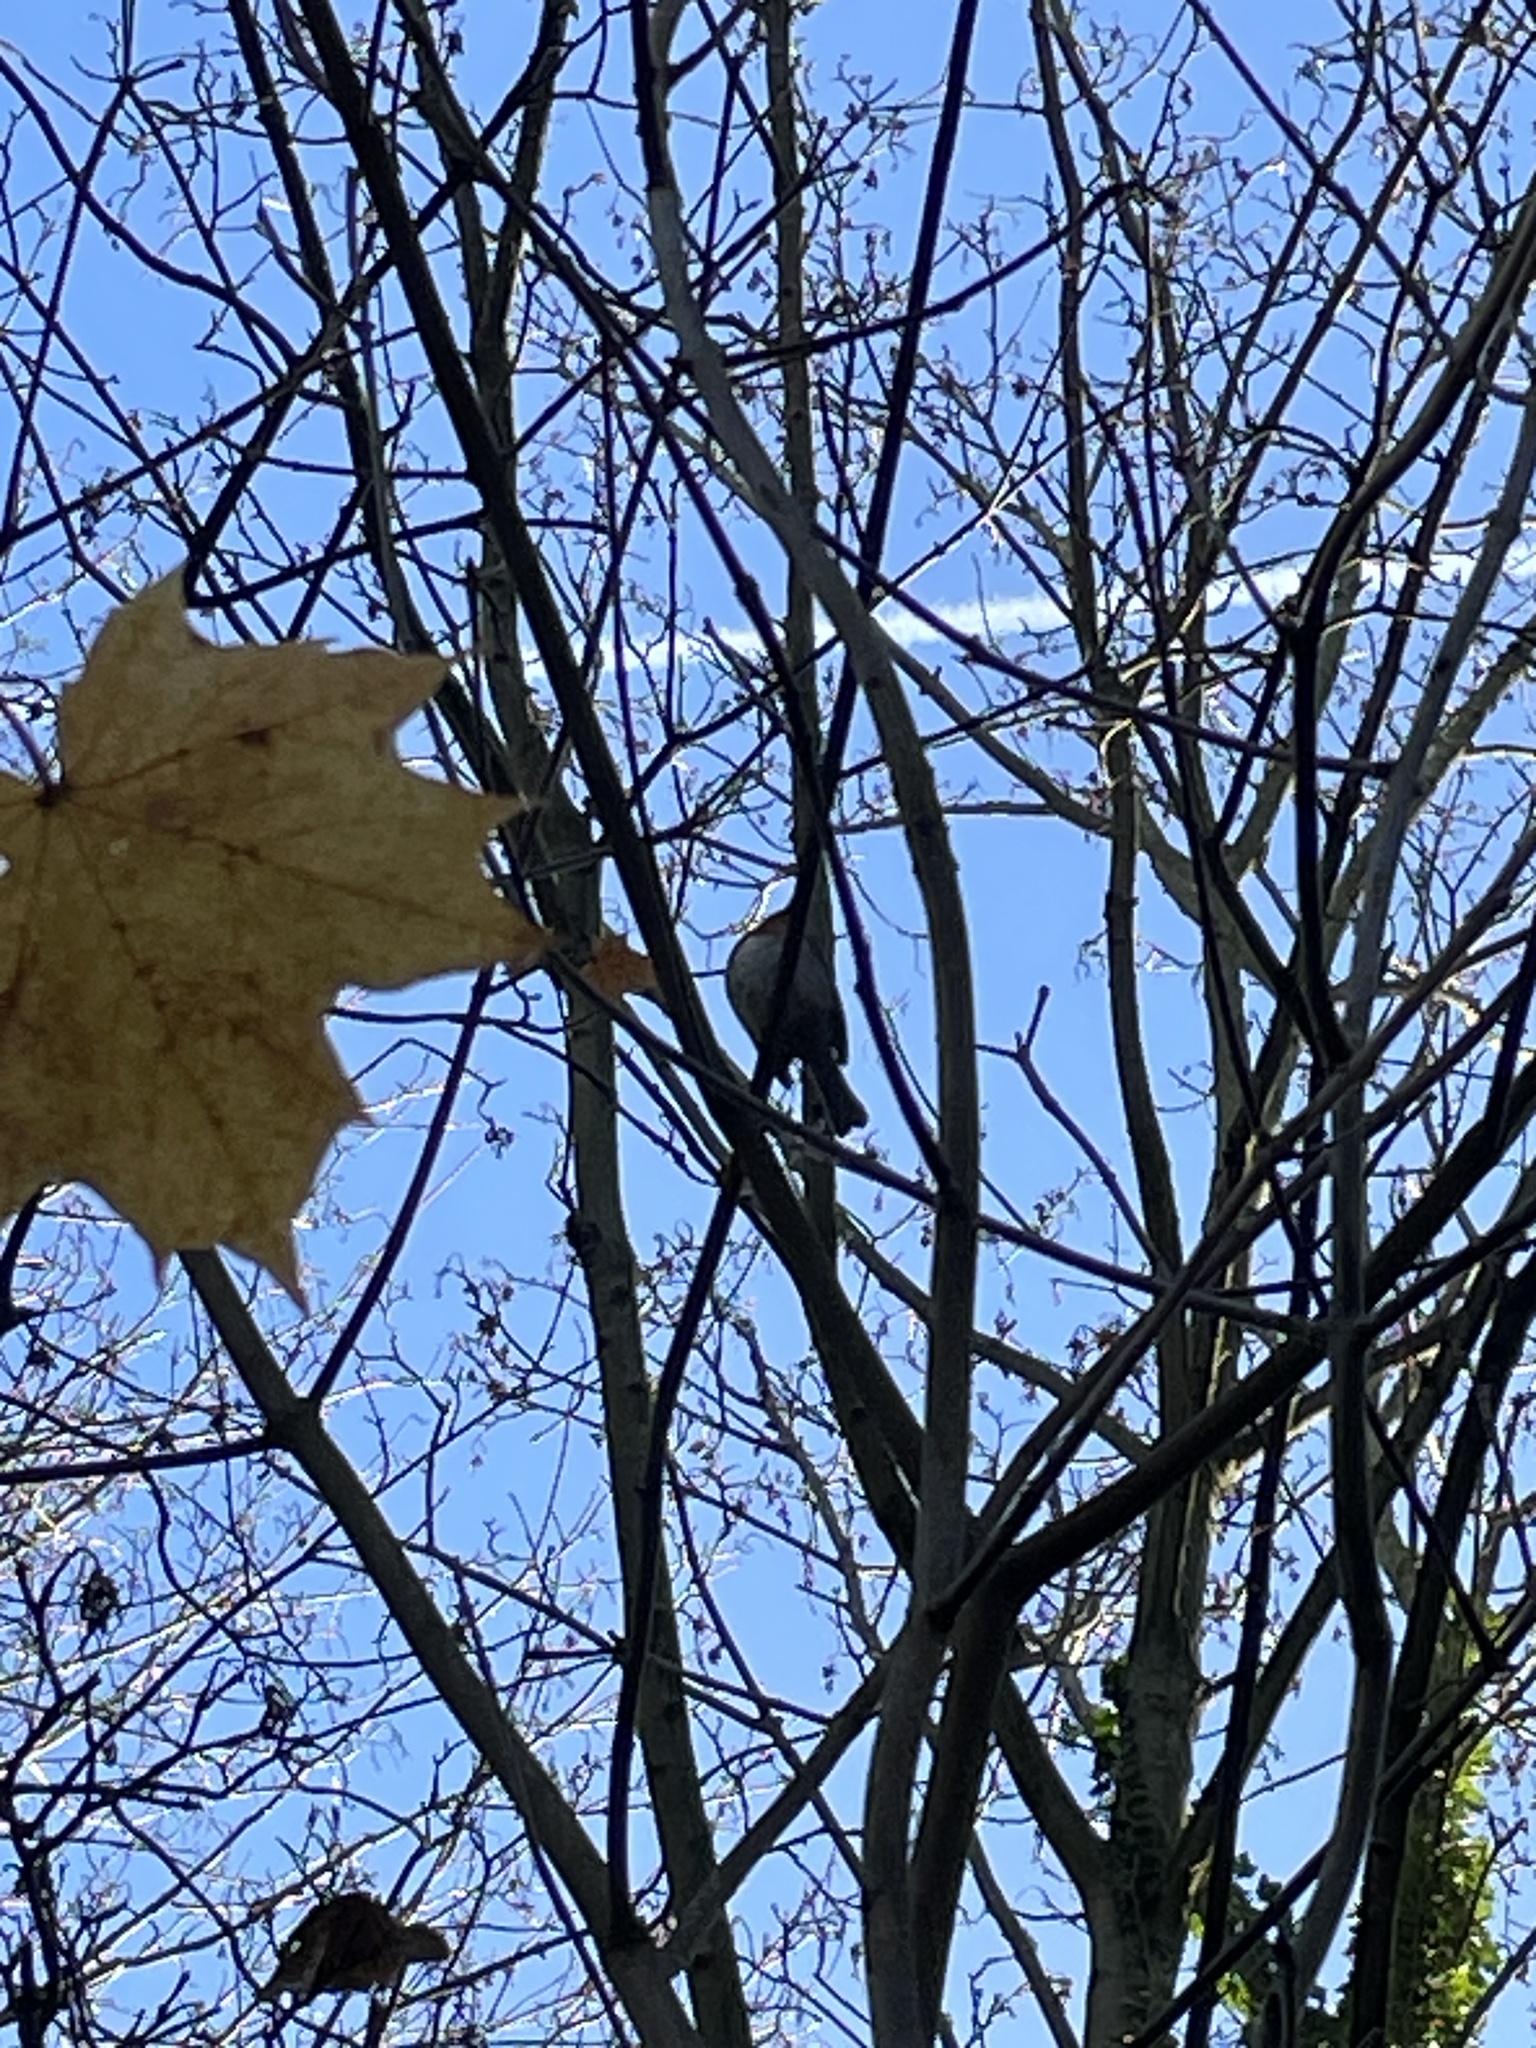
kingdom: Animalia
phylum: Chordata
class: Aves
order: Passeriformes
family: Muscicapidae
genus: Erithacus
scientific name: Erithacus rubecula
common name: European robin
